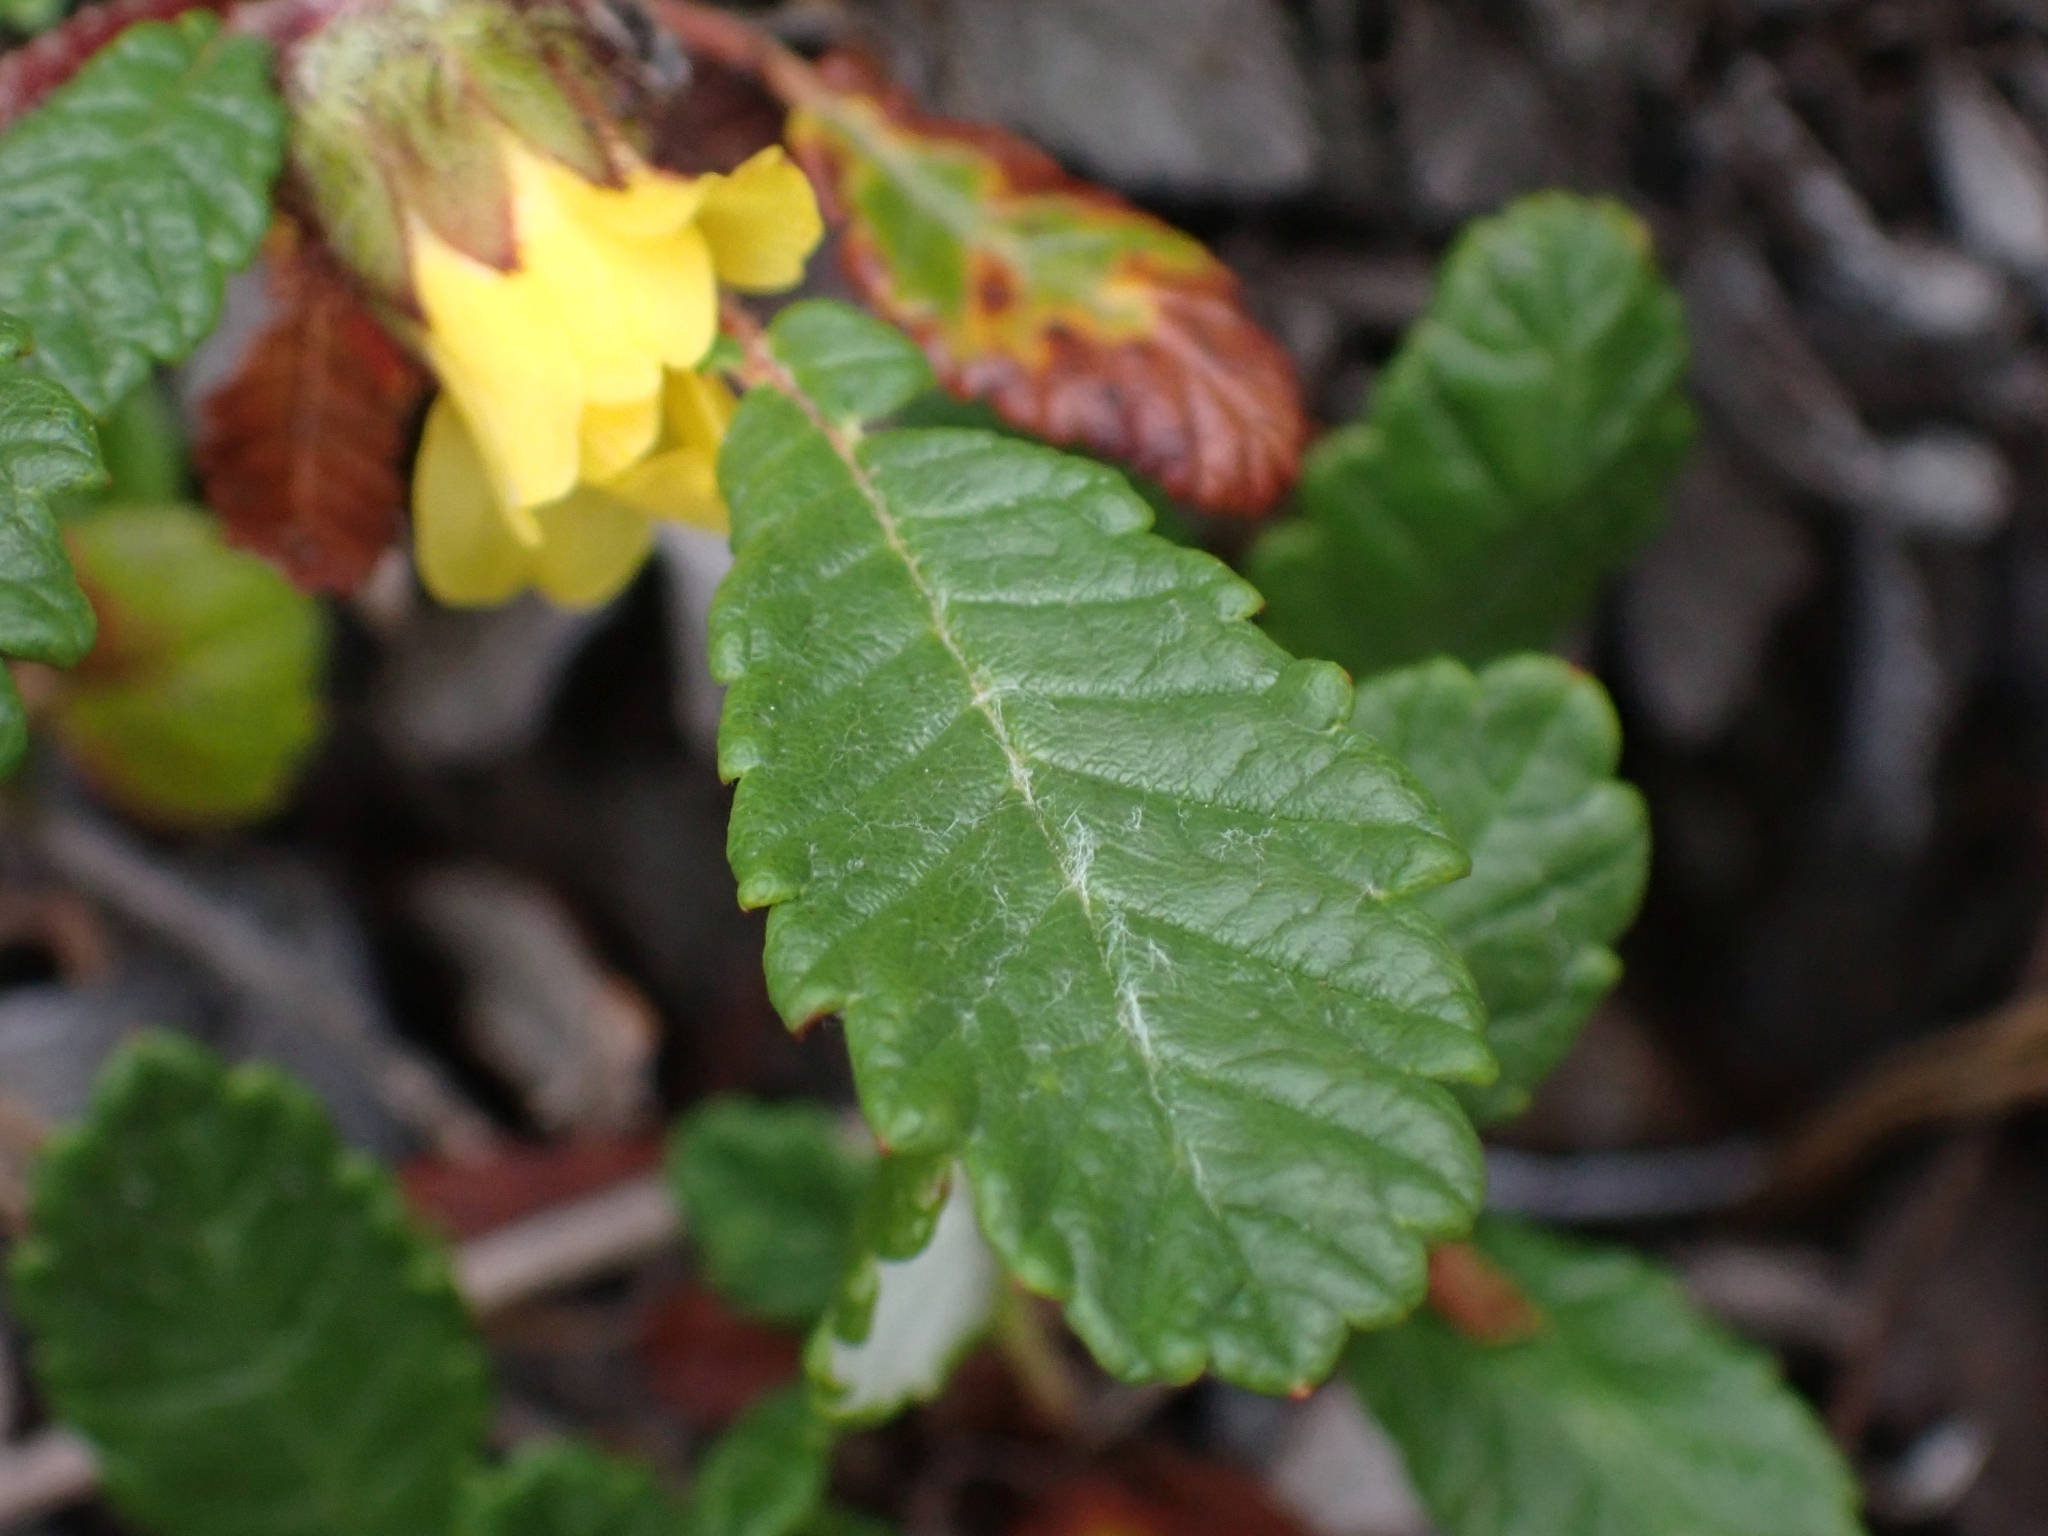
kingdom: Plantae
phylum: Tracheophyta
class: Magnoliopsida
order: Rosales
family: Rosaceae
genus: Dryas
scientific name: Dryas drummondii
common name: Drummond's dryad
